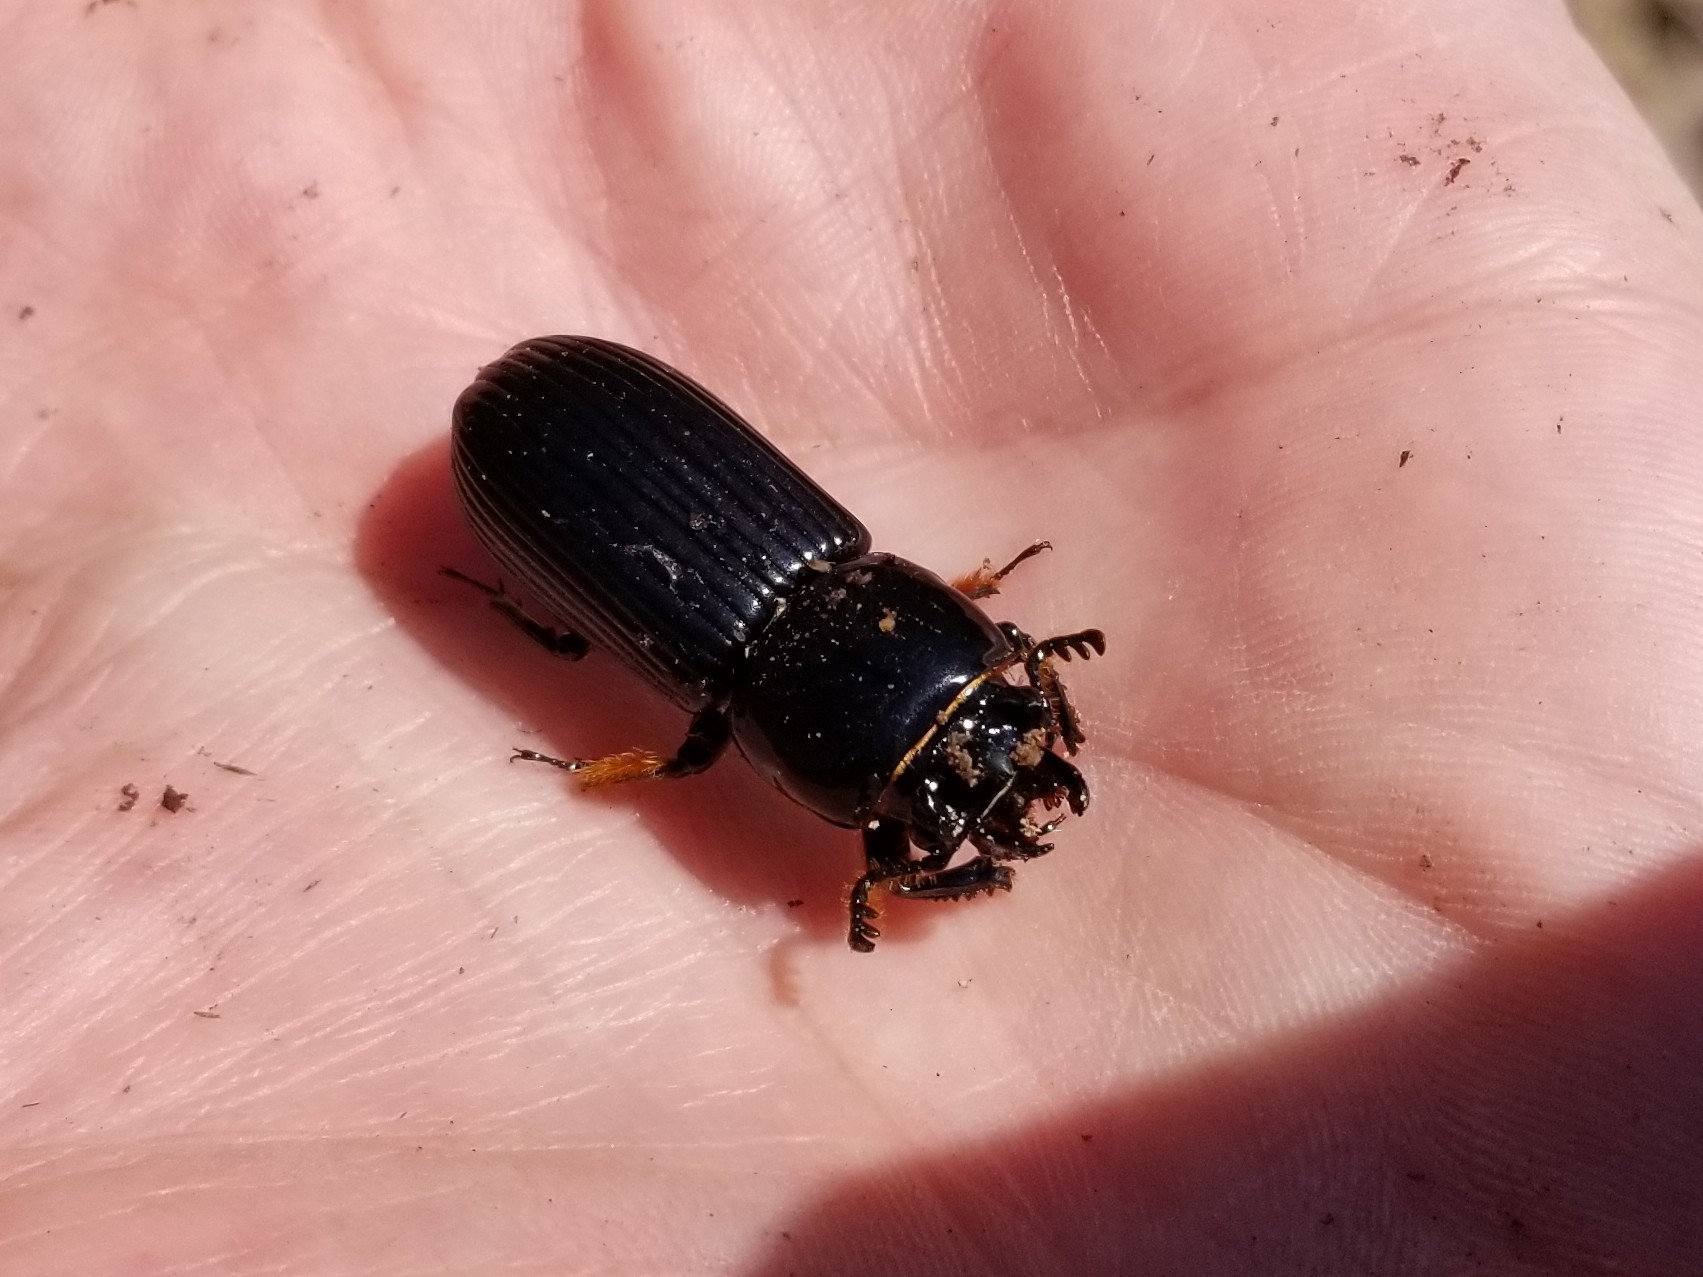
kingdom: Animalia
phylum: Arthropoda
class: Insecta
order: Coleoptera
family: Passalidae
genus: Odontotaenius
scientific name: Odontotaenius disjunctus
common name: Patent leather beetle
